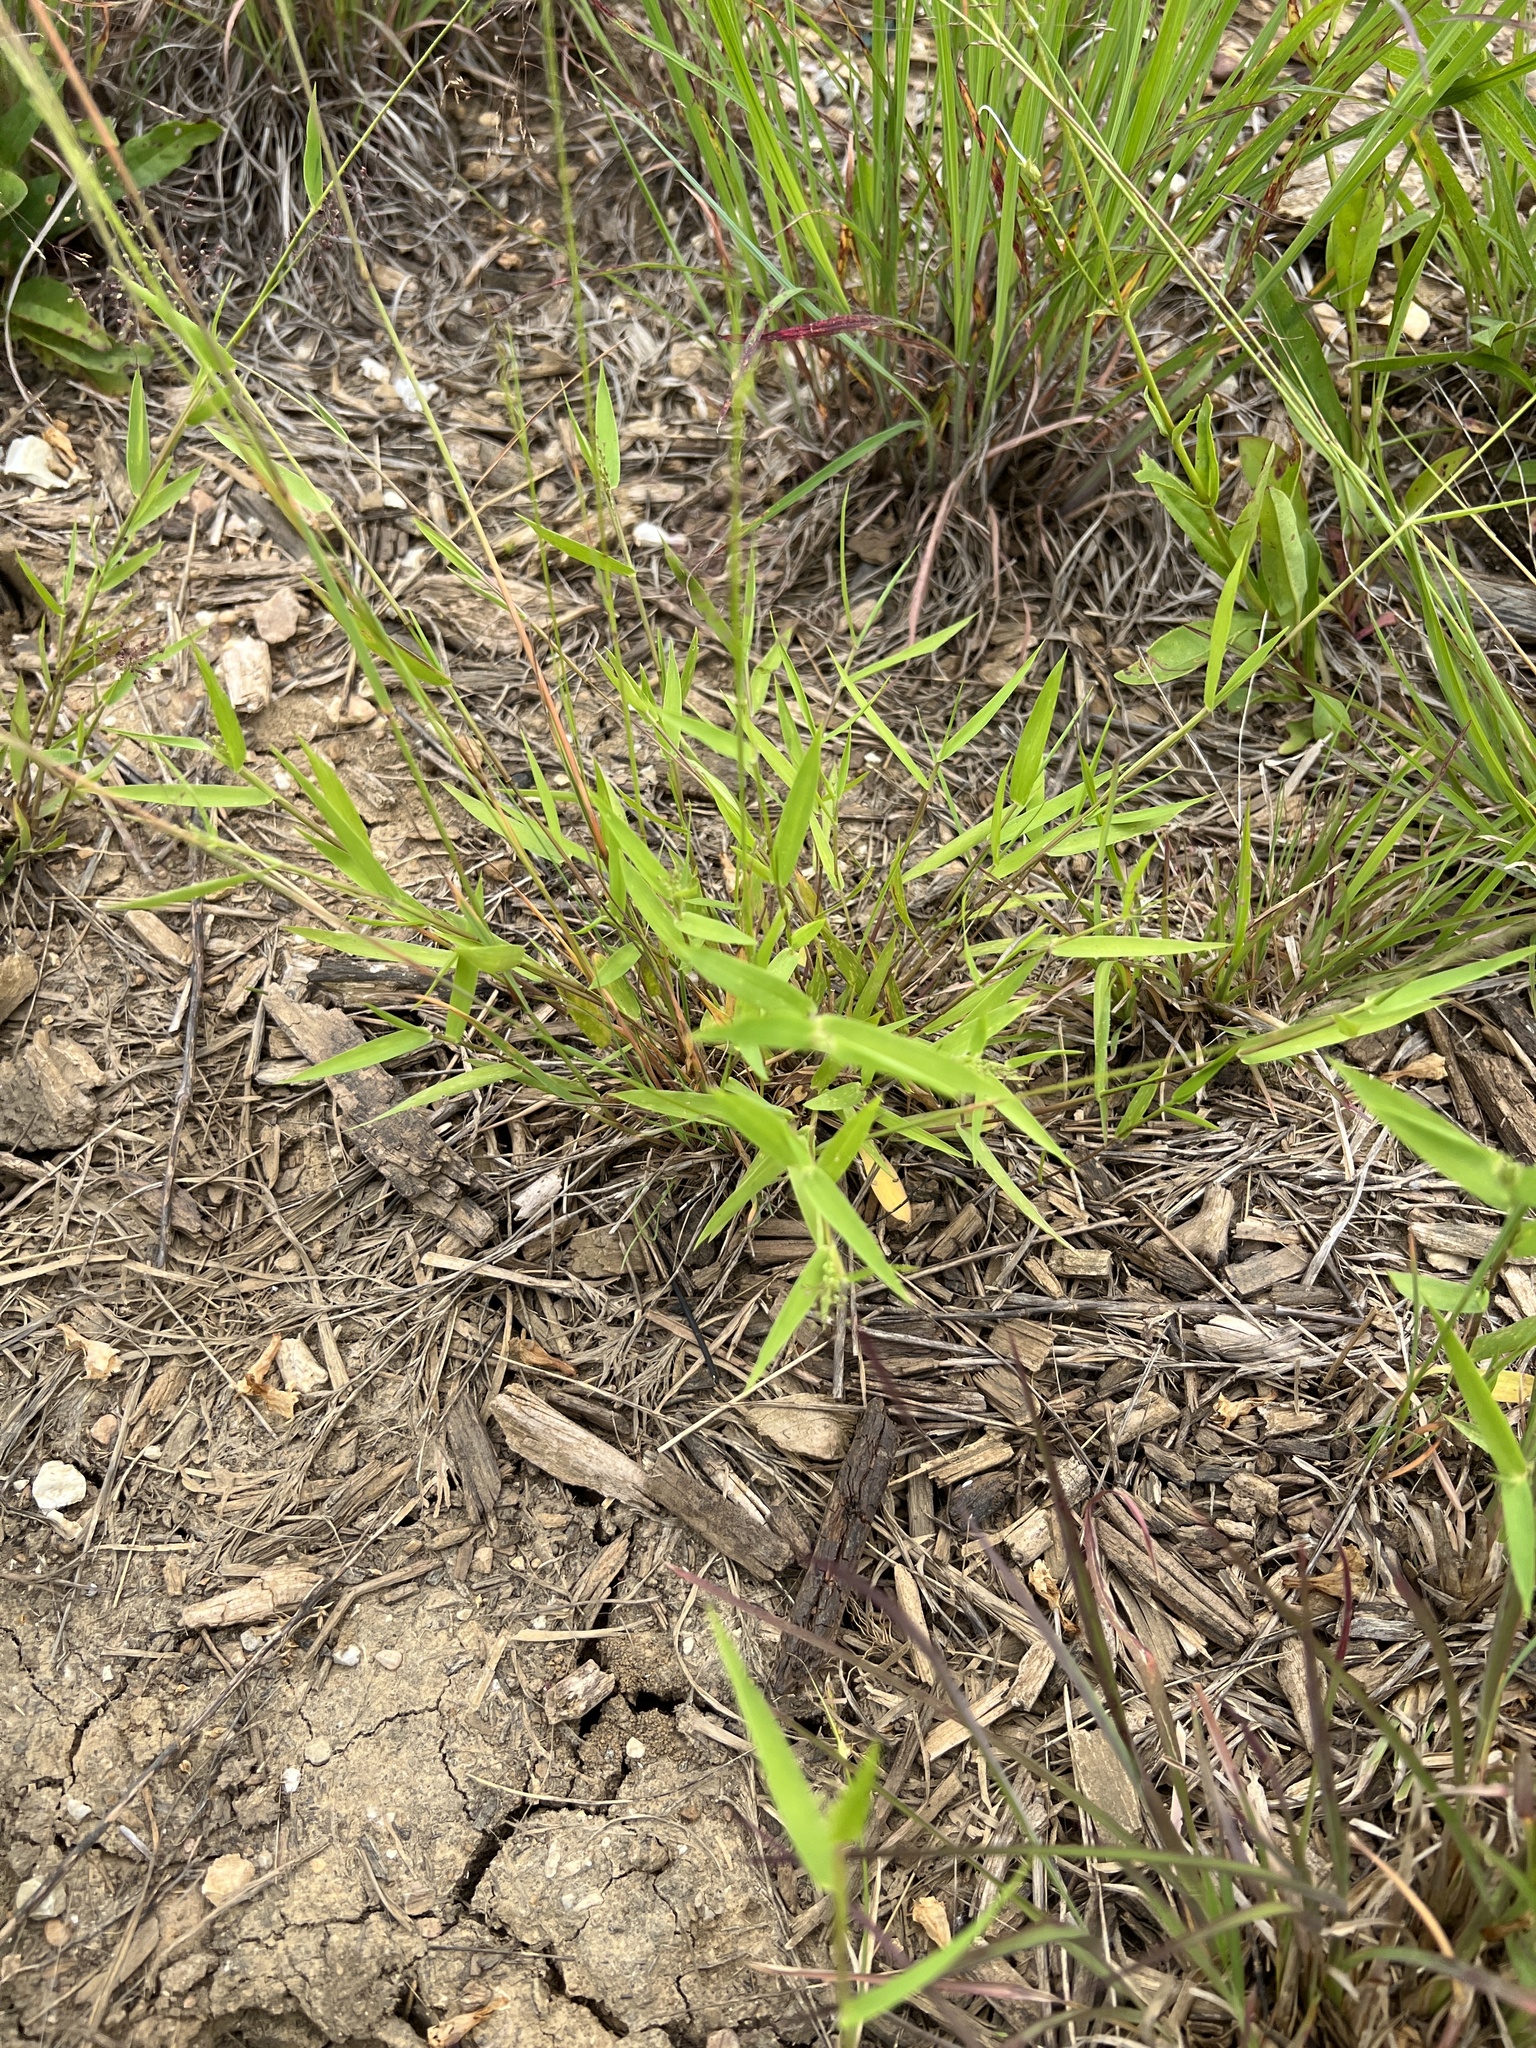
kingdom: Plantae
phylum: Tracheophyta
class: Liliopsida
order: Poales
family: Poaceae
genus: Dichanthelium
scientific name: Dichanthelium inflatum
